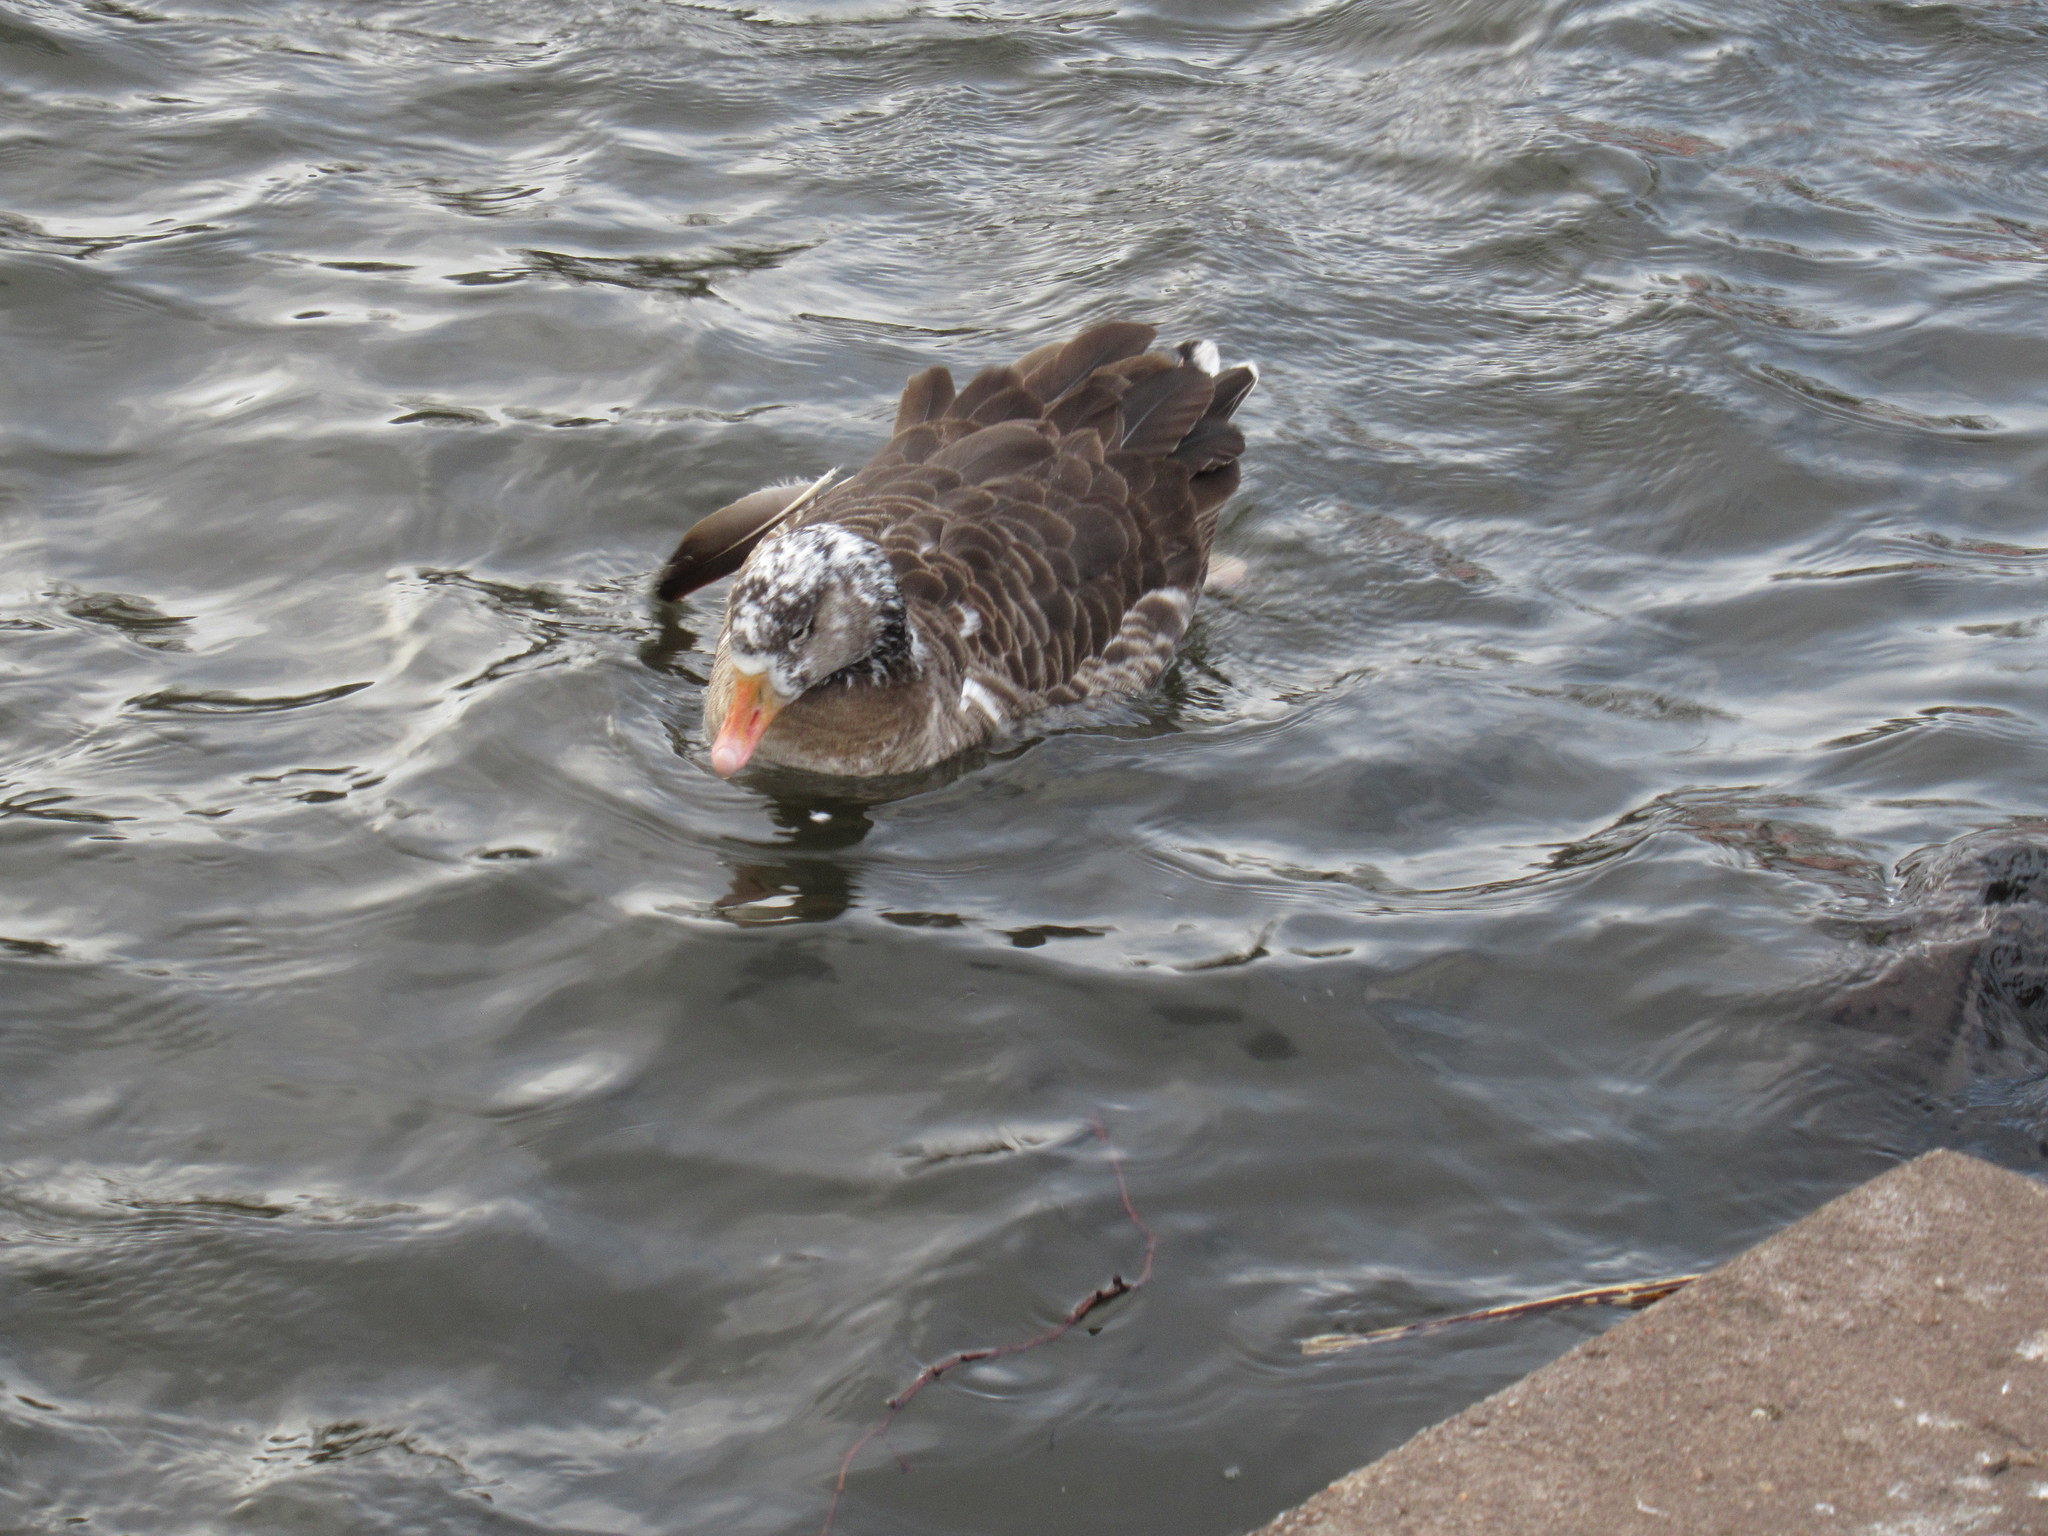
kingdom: Animalia
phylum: Chordata
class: Aves
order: Anseriformes
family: Anatidae
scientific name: Anatidae
